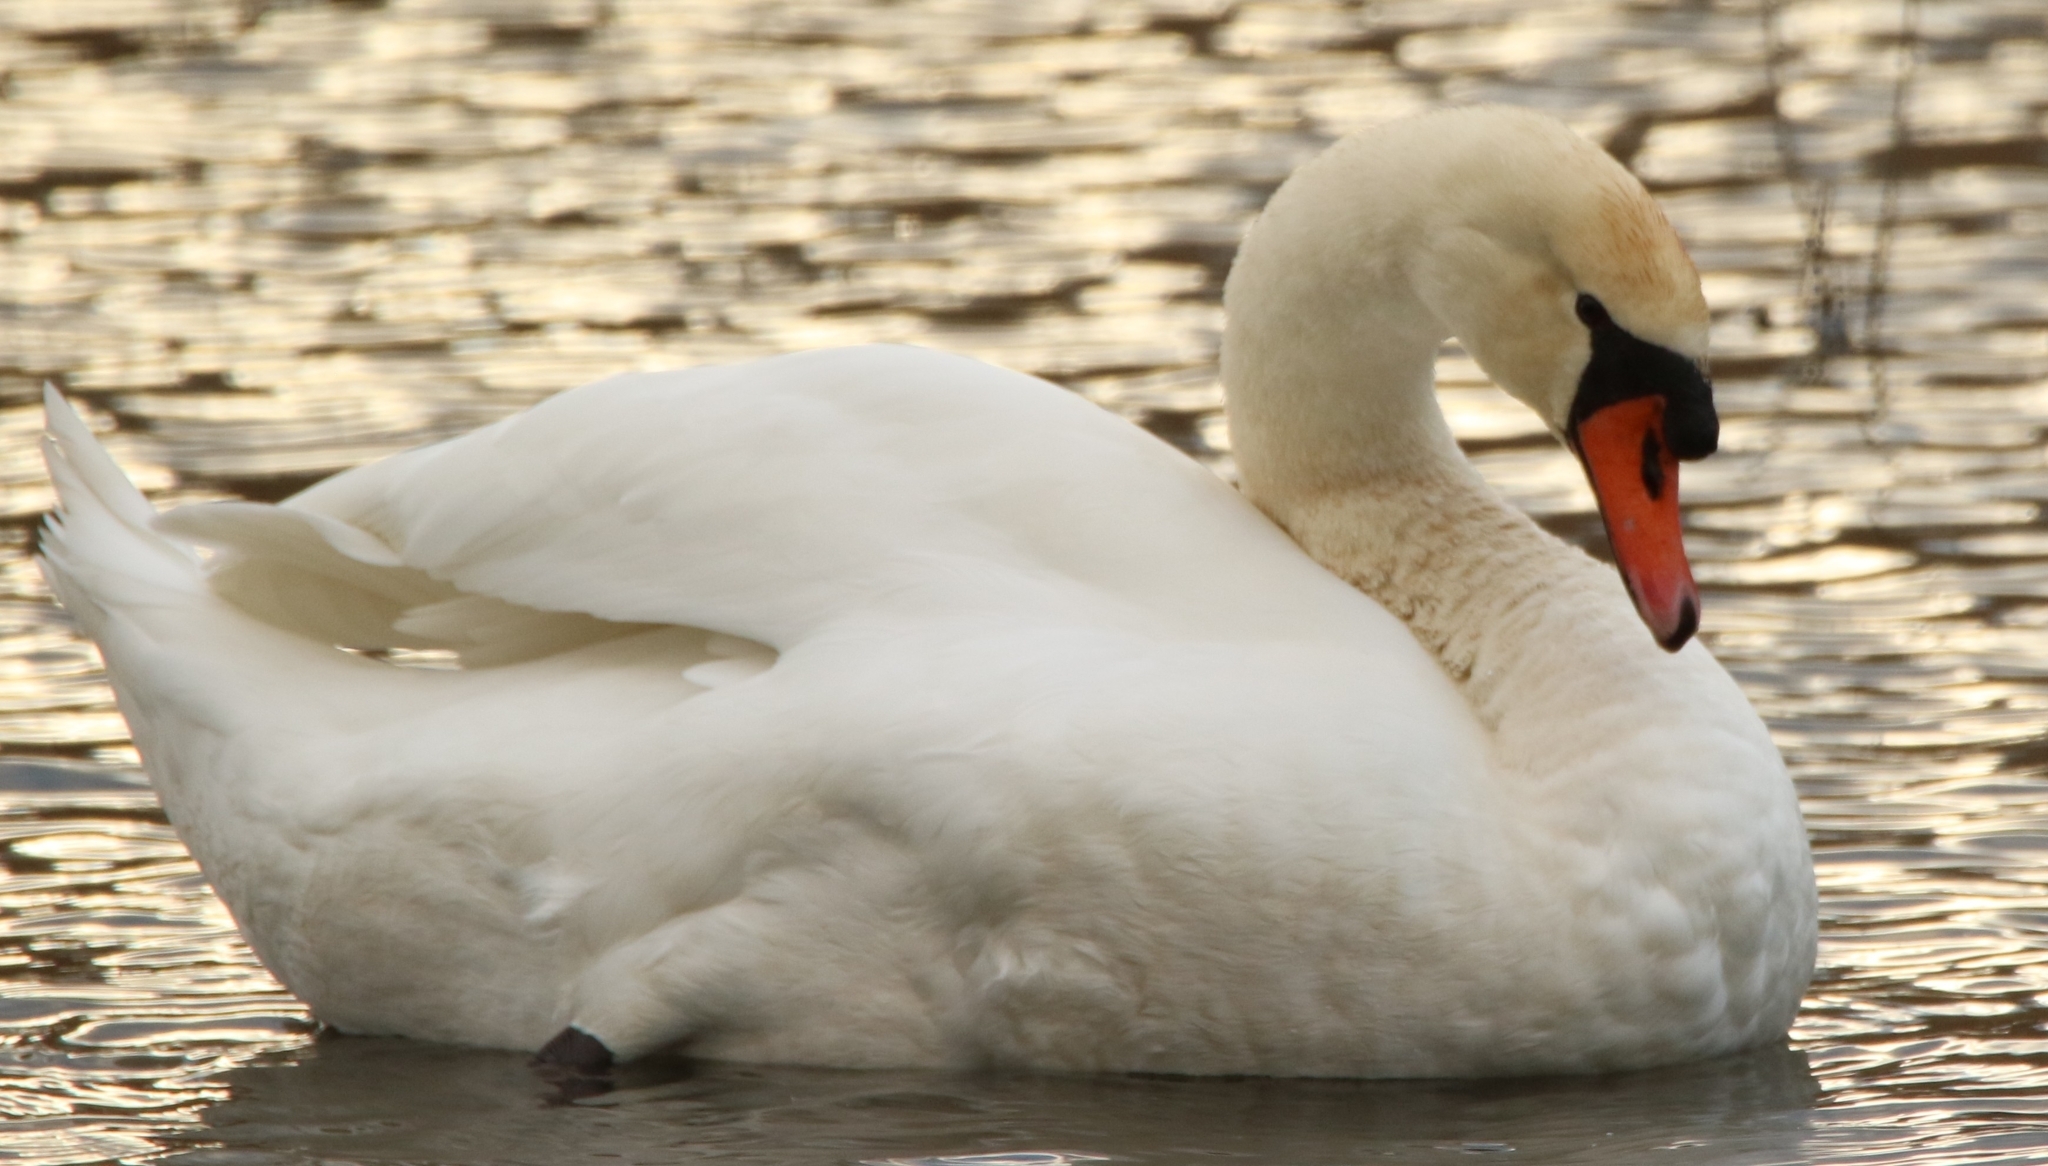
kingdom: Animalia
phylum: Chordata
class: Aves
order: Anseriformes
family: Anatidae
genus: Cygnus
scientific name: Cygnus olor
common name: Mute swan
